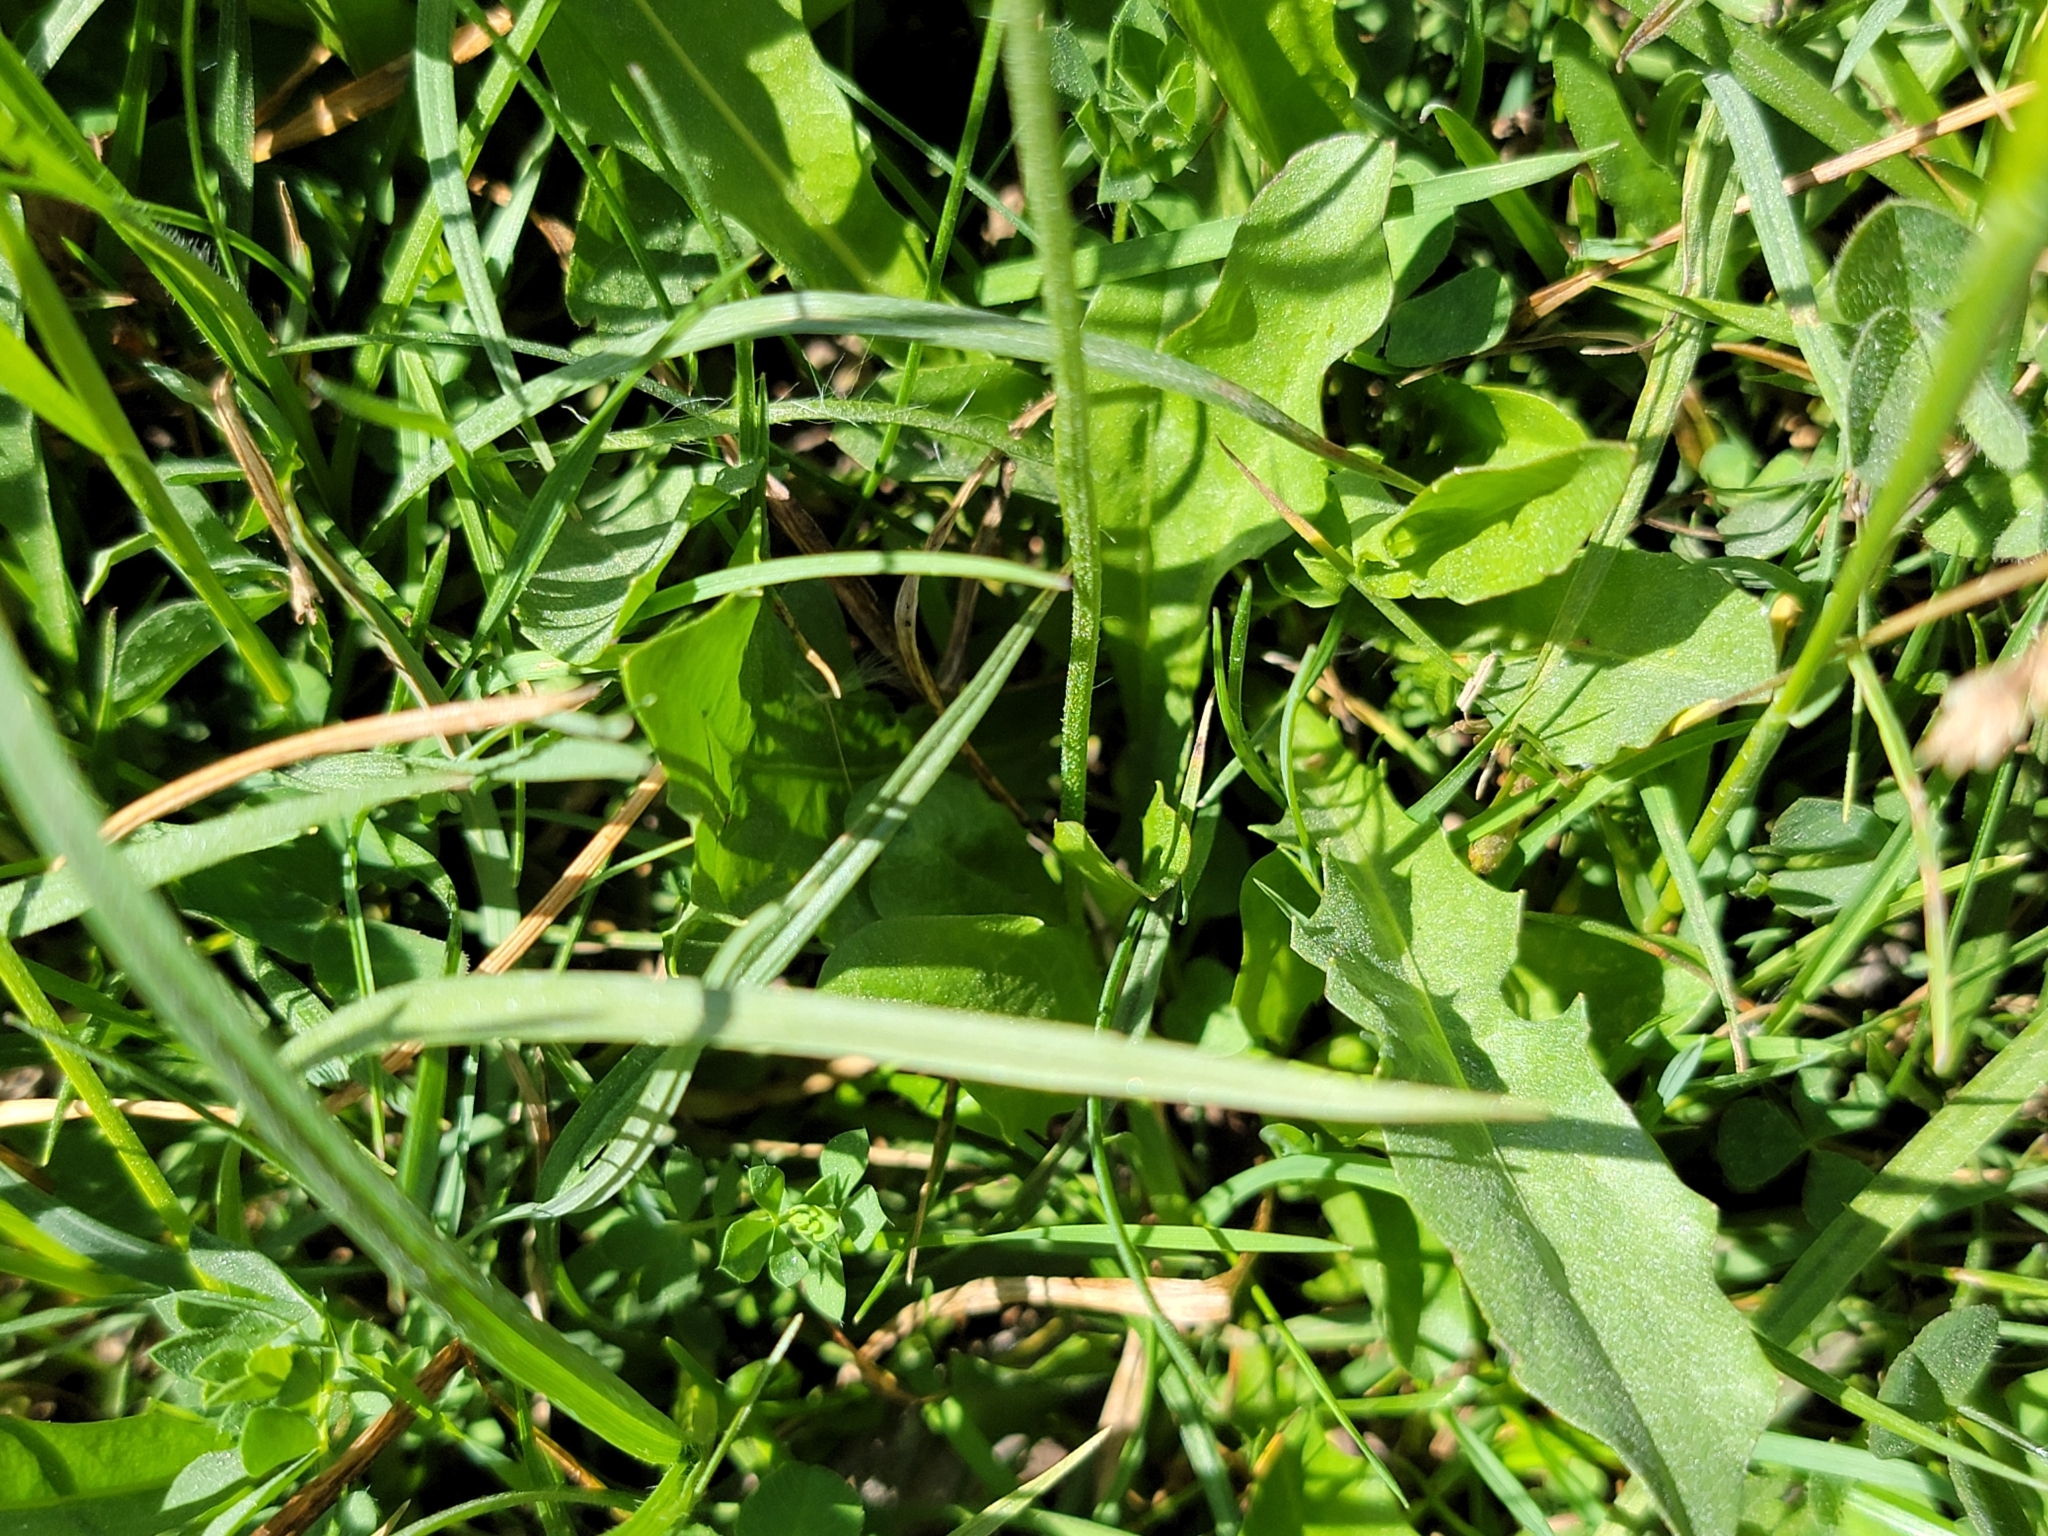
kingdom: Plantae
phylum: Tracheophyta
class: Magnoliopsida
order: Asterales
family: Asteraceae
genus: Crepis
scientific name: Crepis aurea
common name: Golden hawk's-beard
